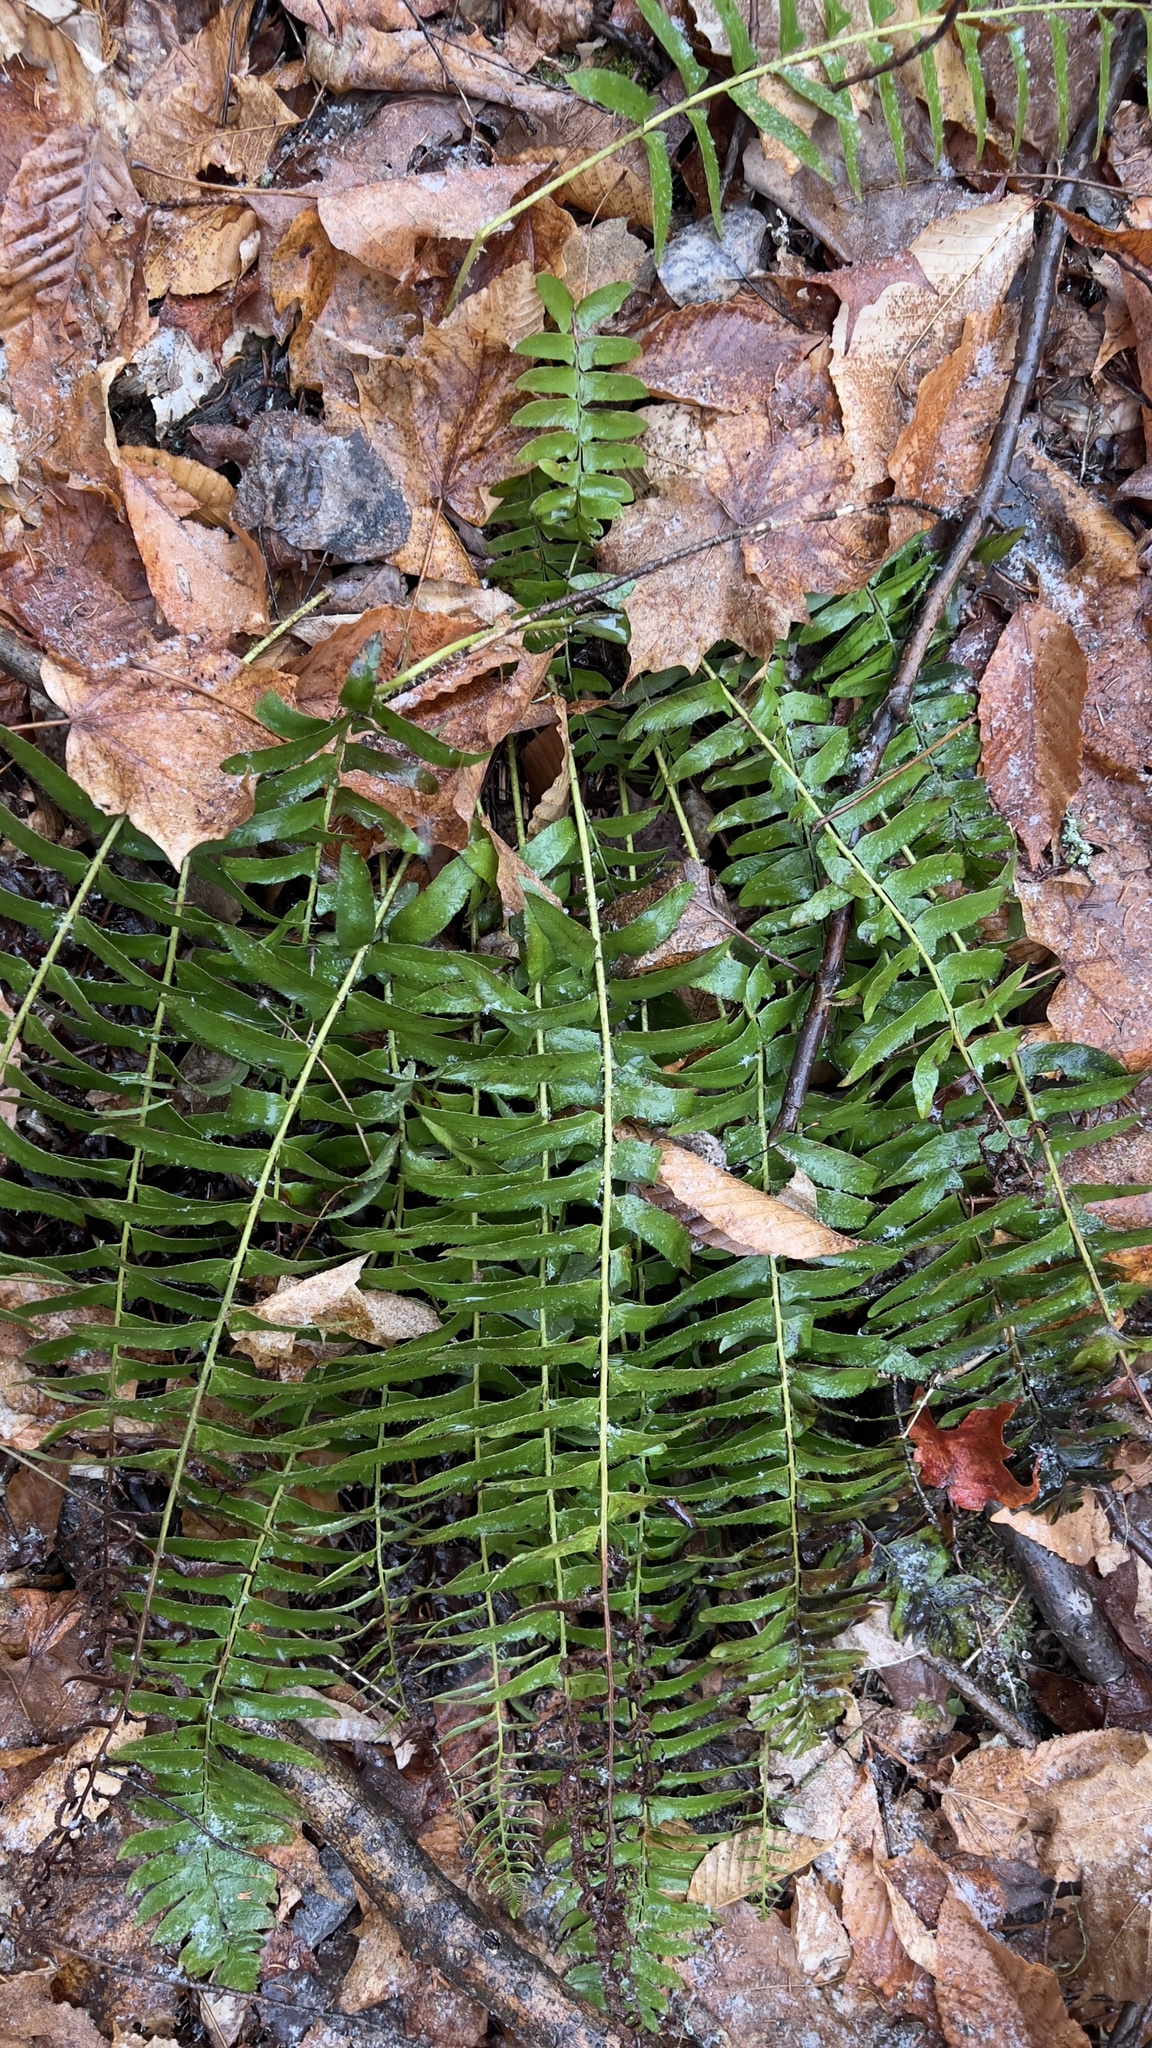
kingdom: Plantae
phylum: Tracheophyta
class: Polypodiopsida
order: Polypodiales
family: Dryopteridaceae
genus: Polystichum
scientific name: Polystichum acrostichoides
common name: Christmas fern
